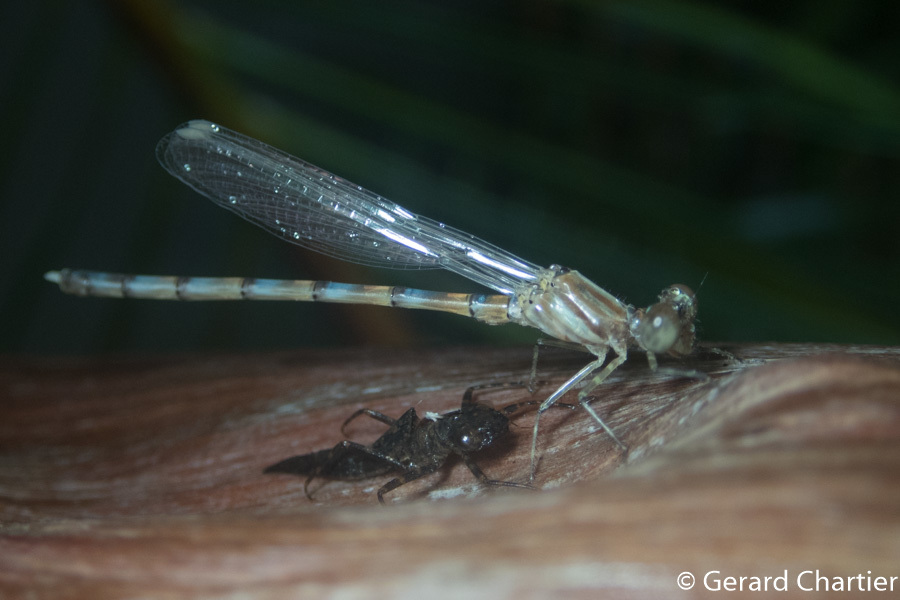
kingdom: Animalia
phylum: Arthropoda
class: Insecta
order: Odonata
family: Philosinidae
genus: Rhinagrion
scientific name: Rhinagrion viridatum
